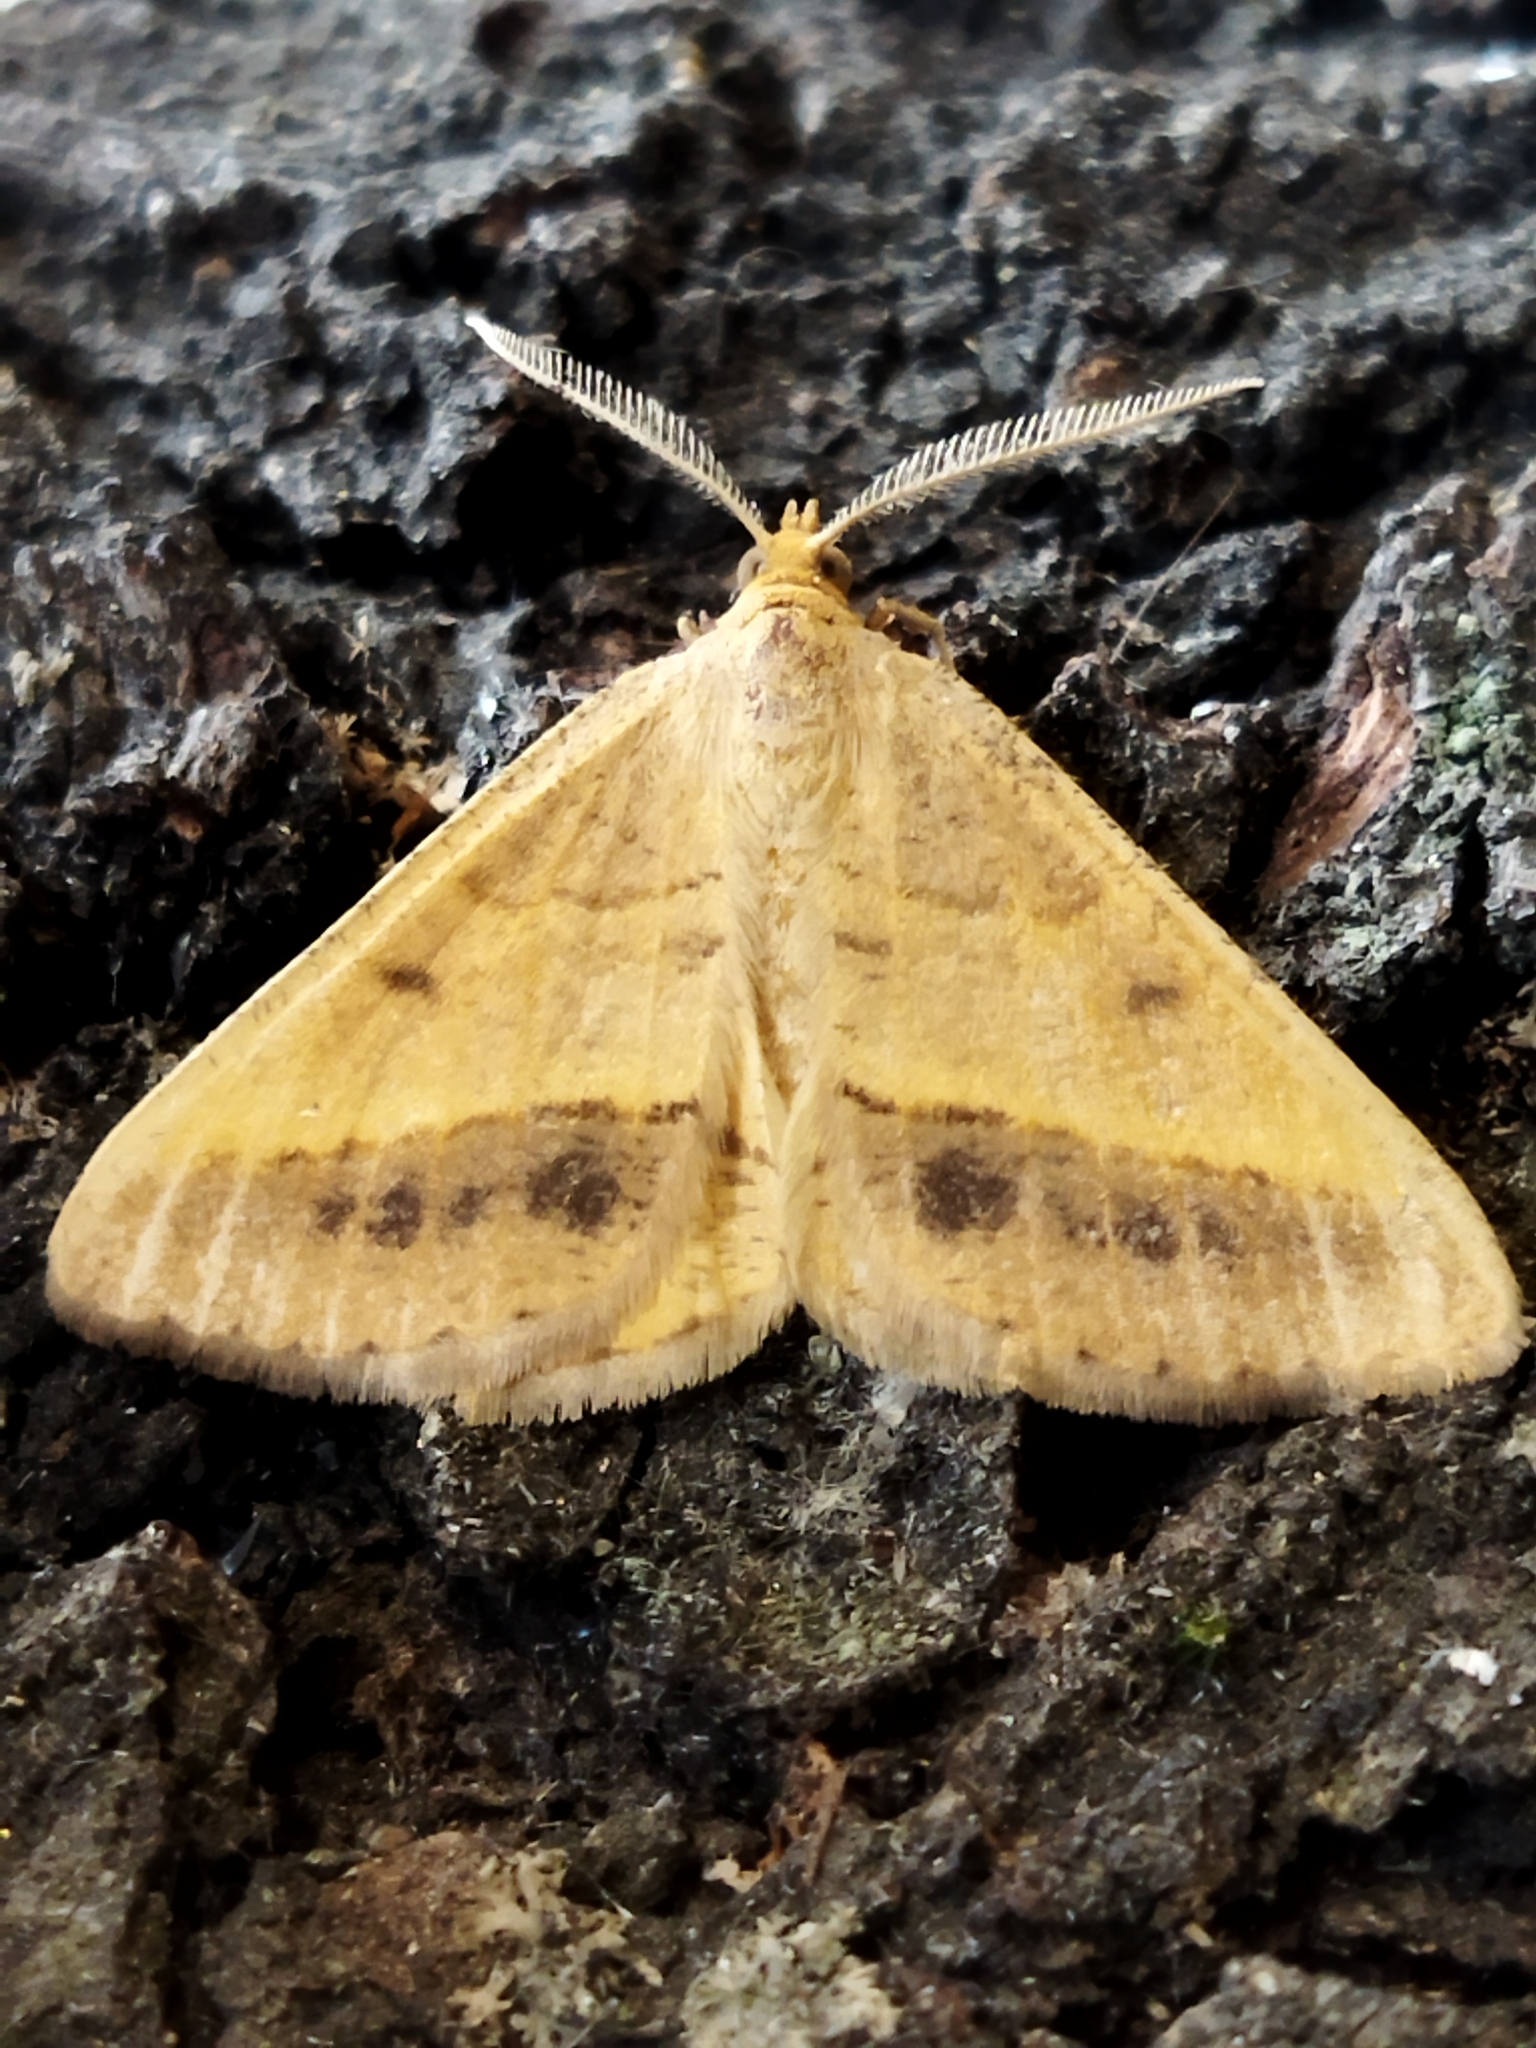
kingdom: Animalia
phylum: Arthropoda
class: Insecta
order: Lepidoptera
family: Geometridae
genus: Tephrina
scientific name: Tephrina arenacearia
